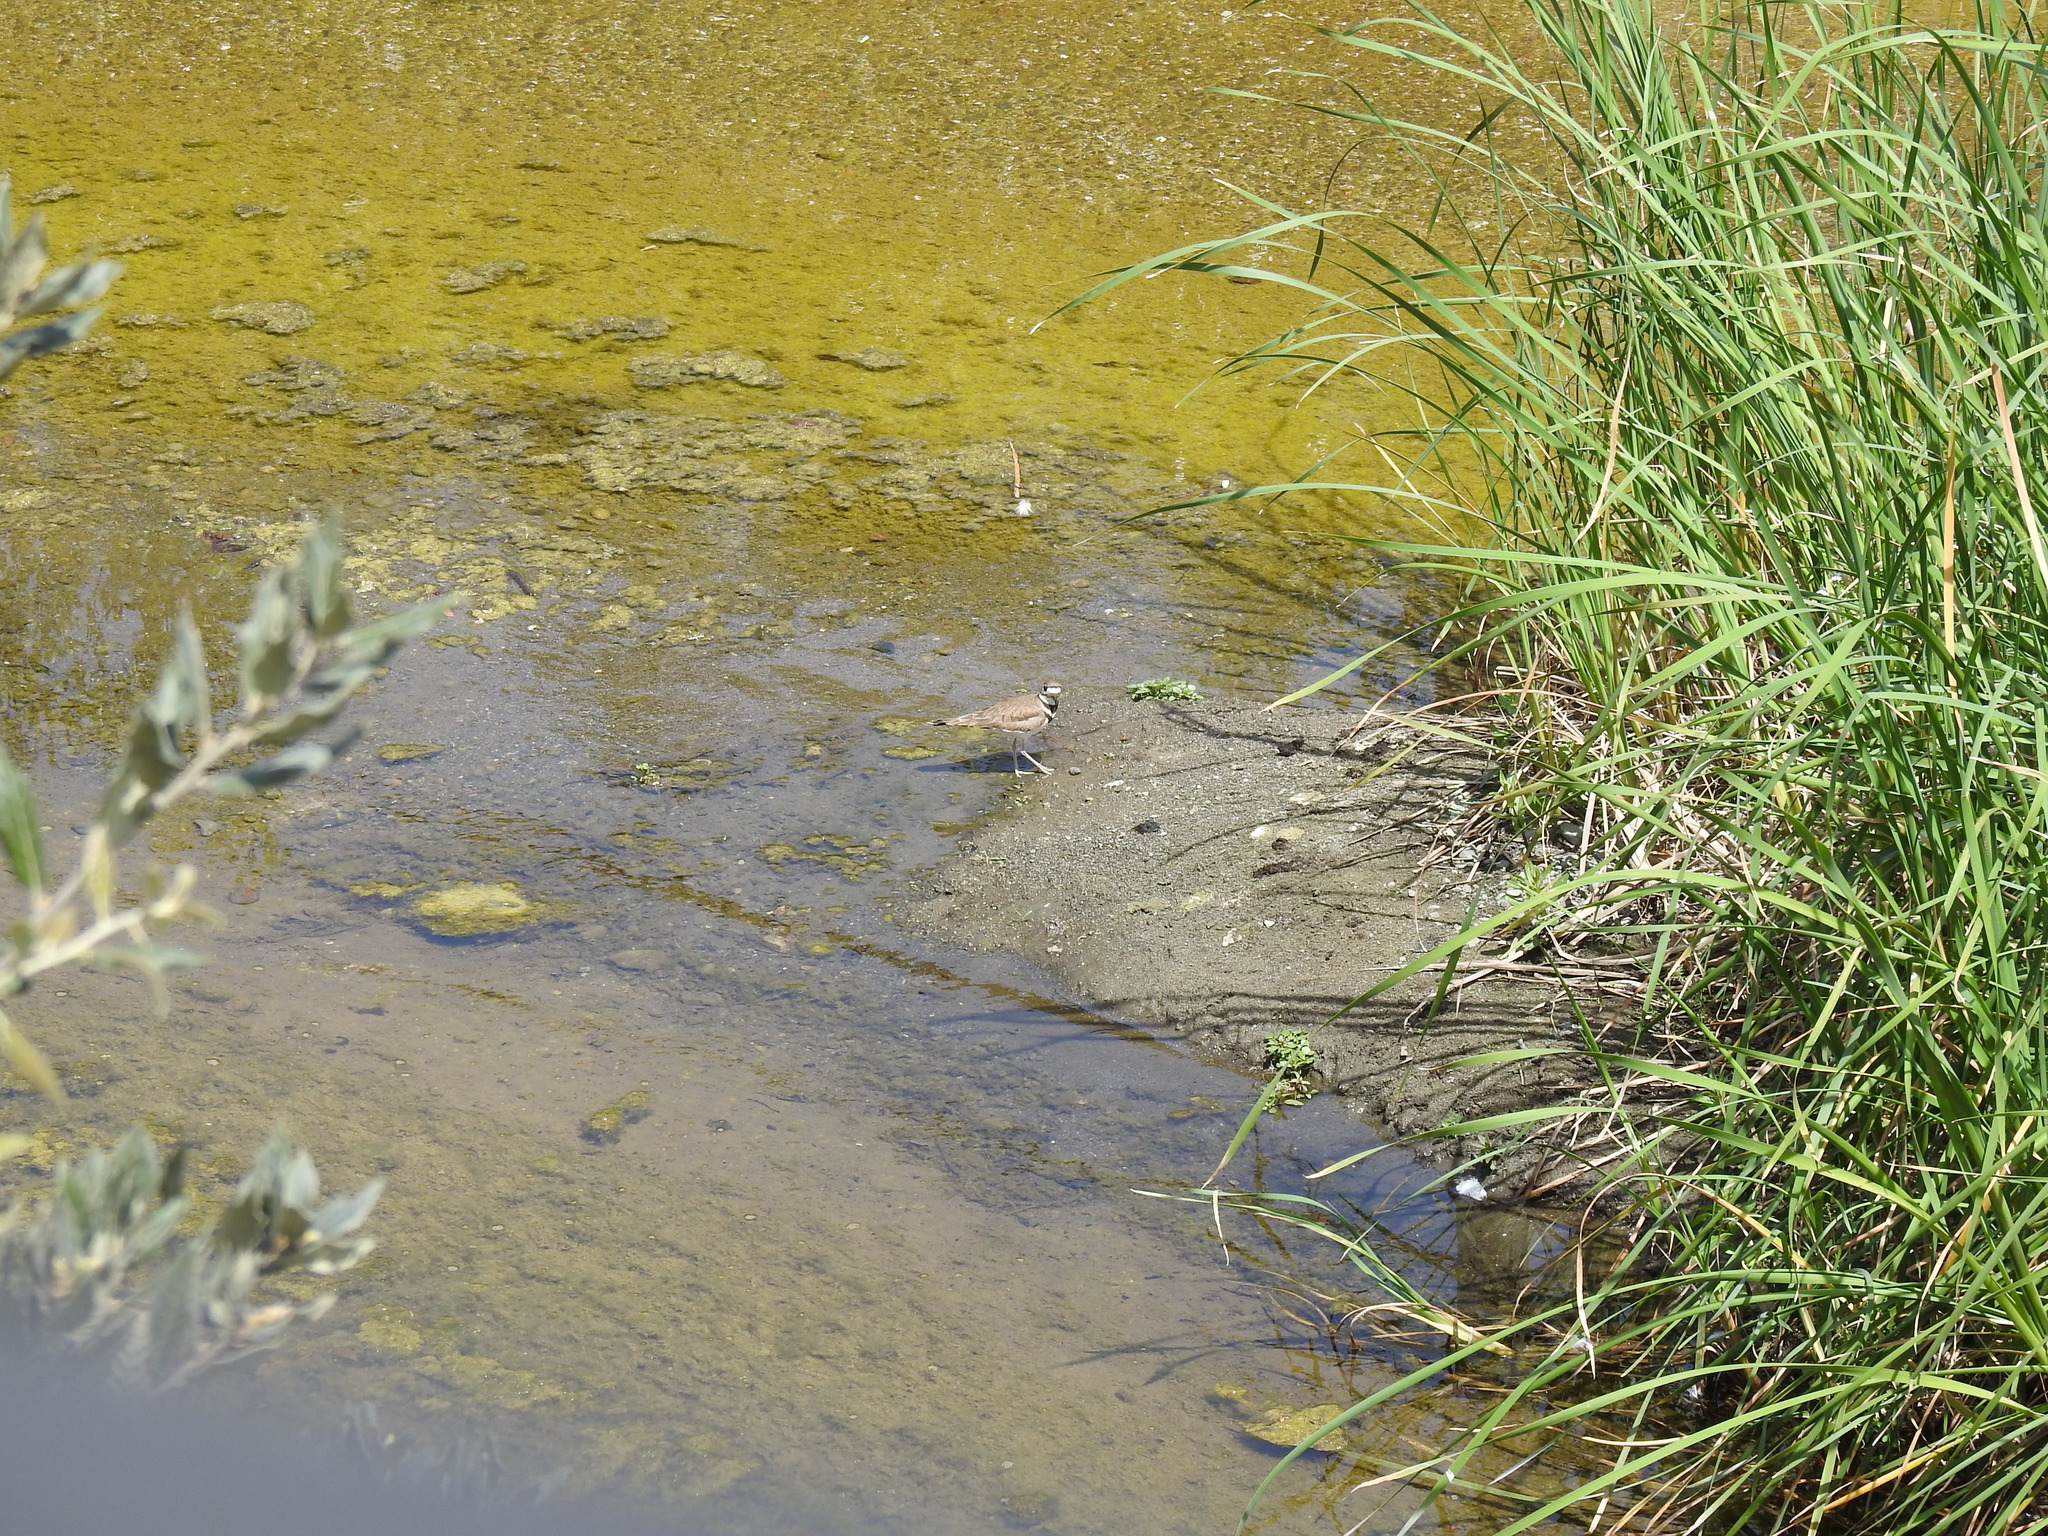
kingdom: Animalia
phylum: Chordata
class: Aves
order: Charadriiformes
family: Charadriidae
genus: Charadrius
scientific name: Charadrius vociferus
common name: Killdeer
